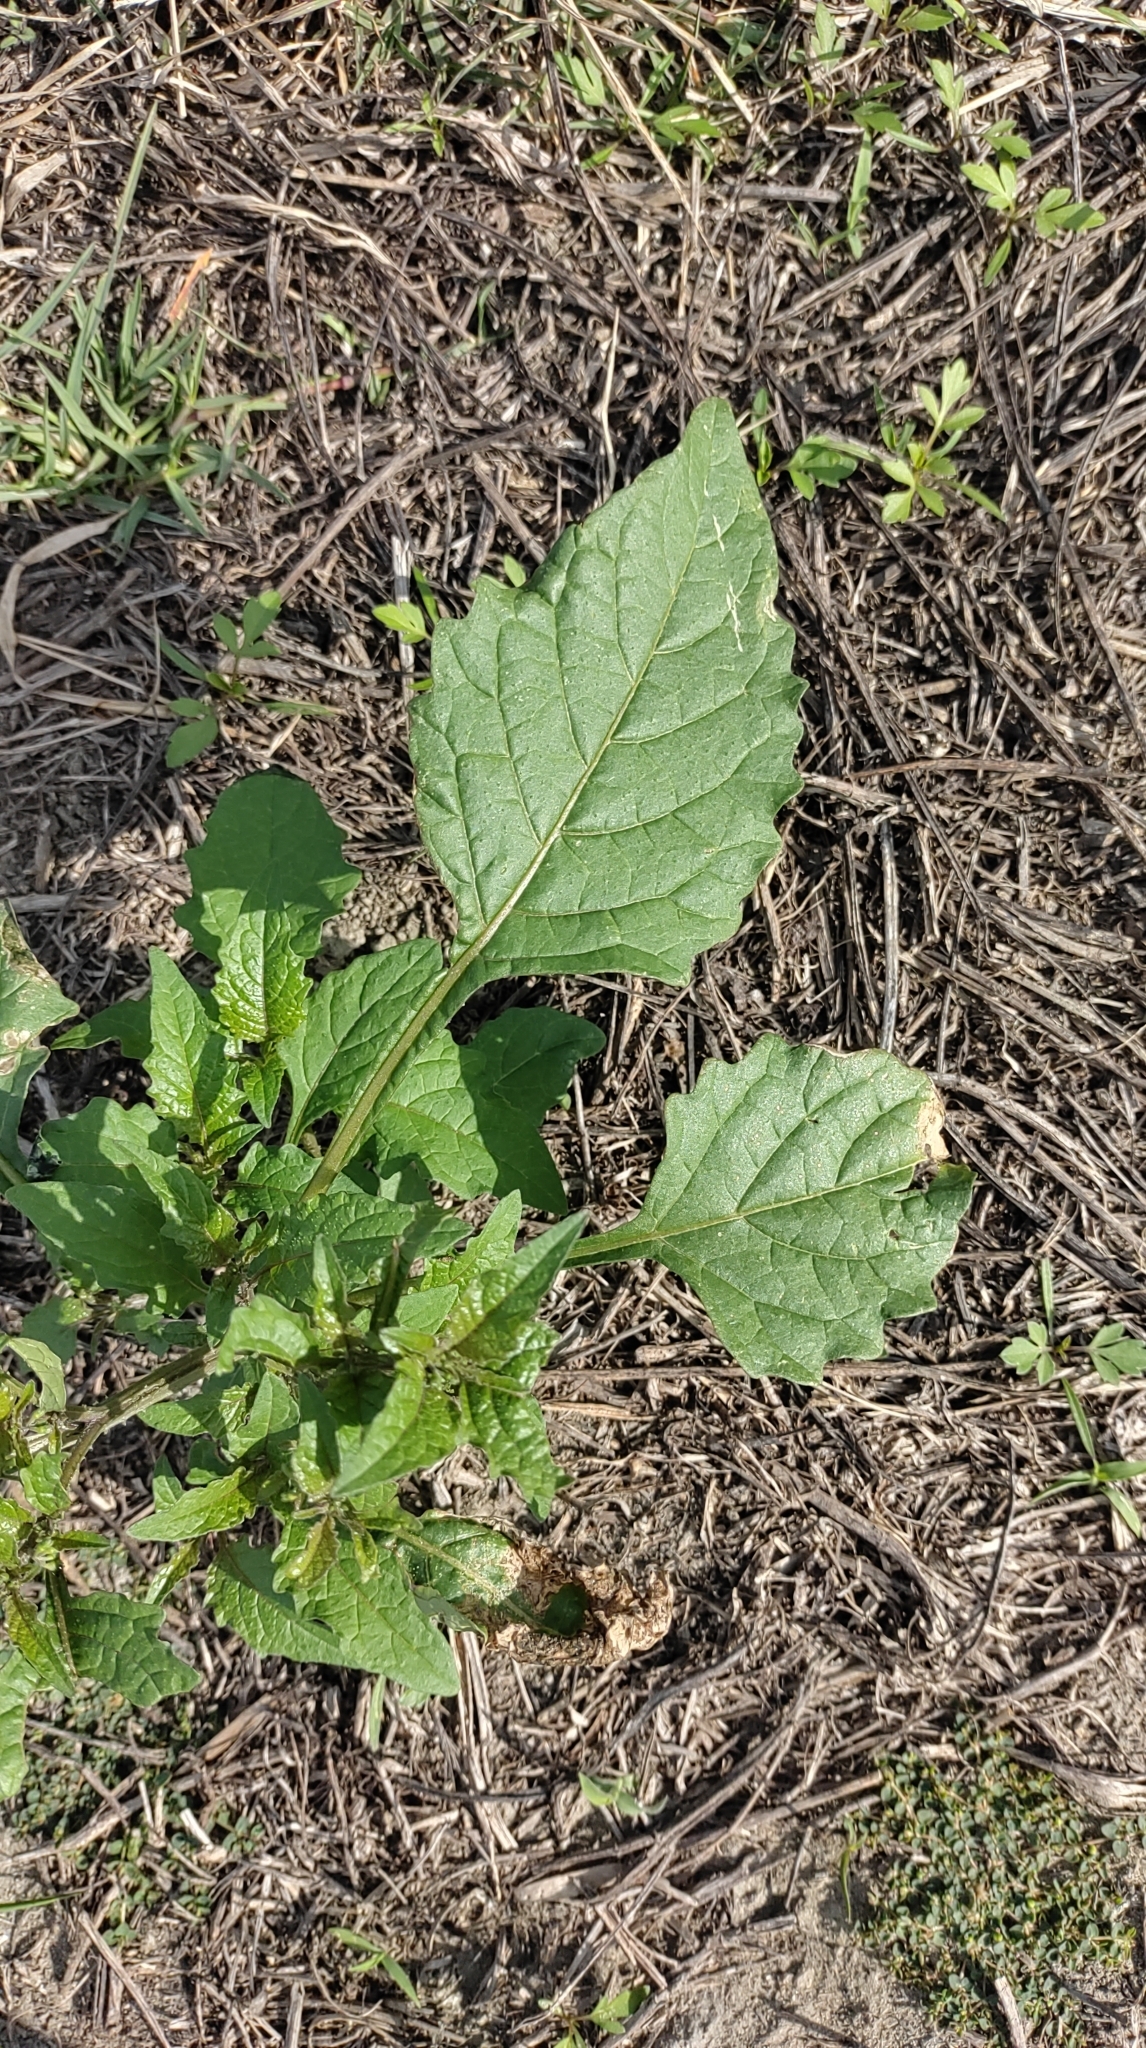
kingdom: Plantae
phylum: Tracheophyta
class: Magnoliopsida
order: Solanales
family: Solanaceae
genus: Solanum
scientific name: Solanum
